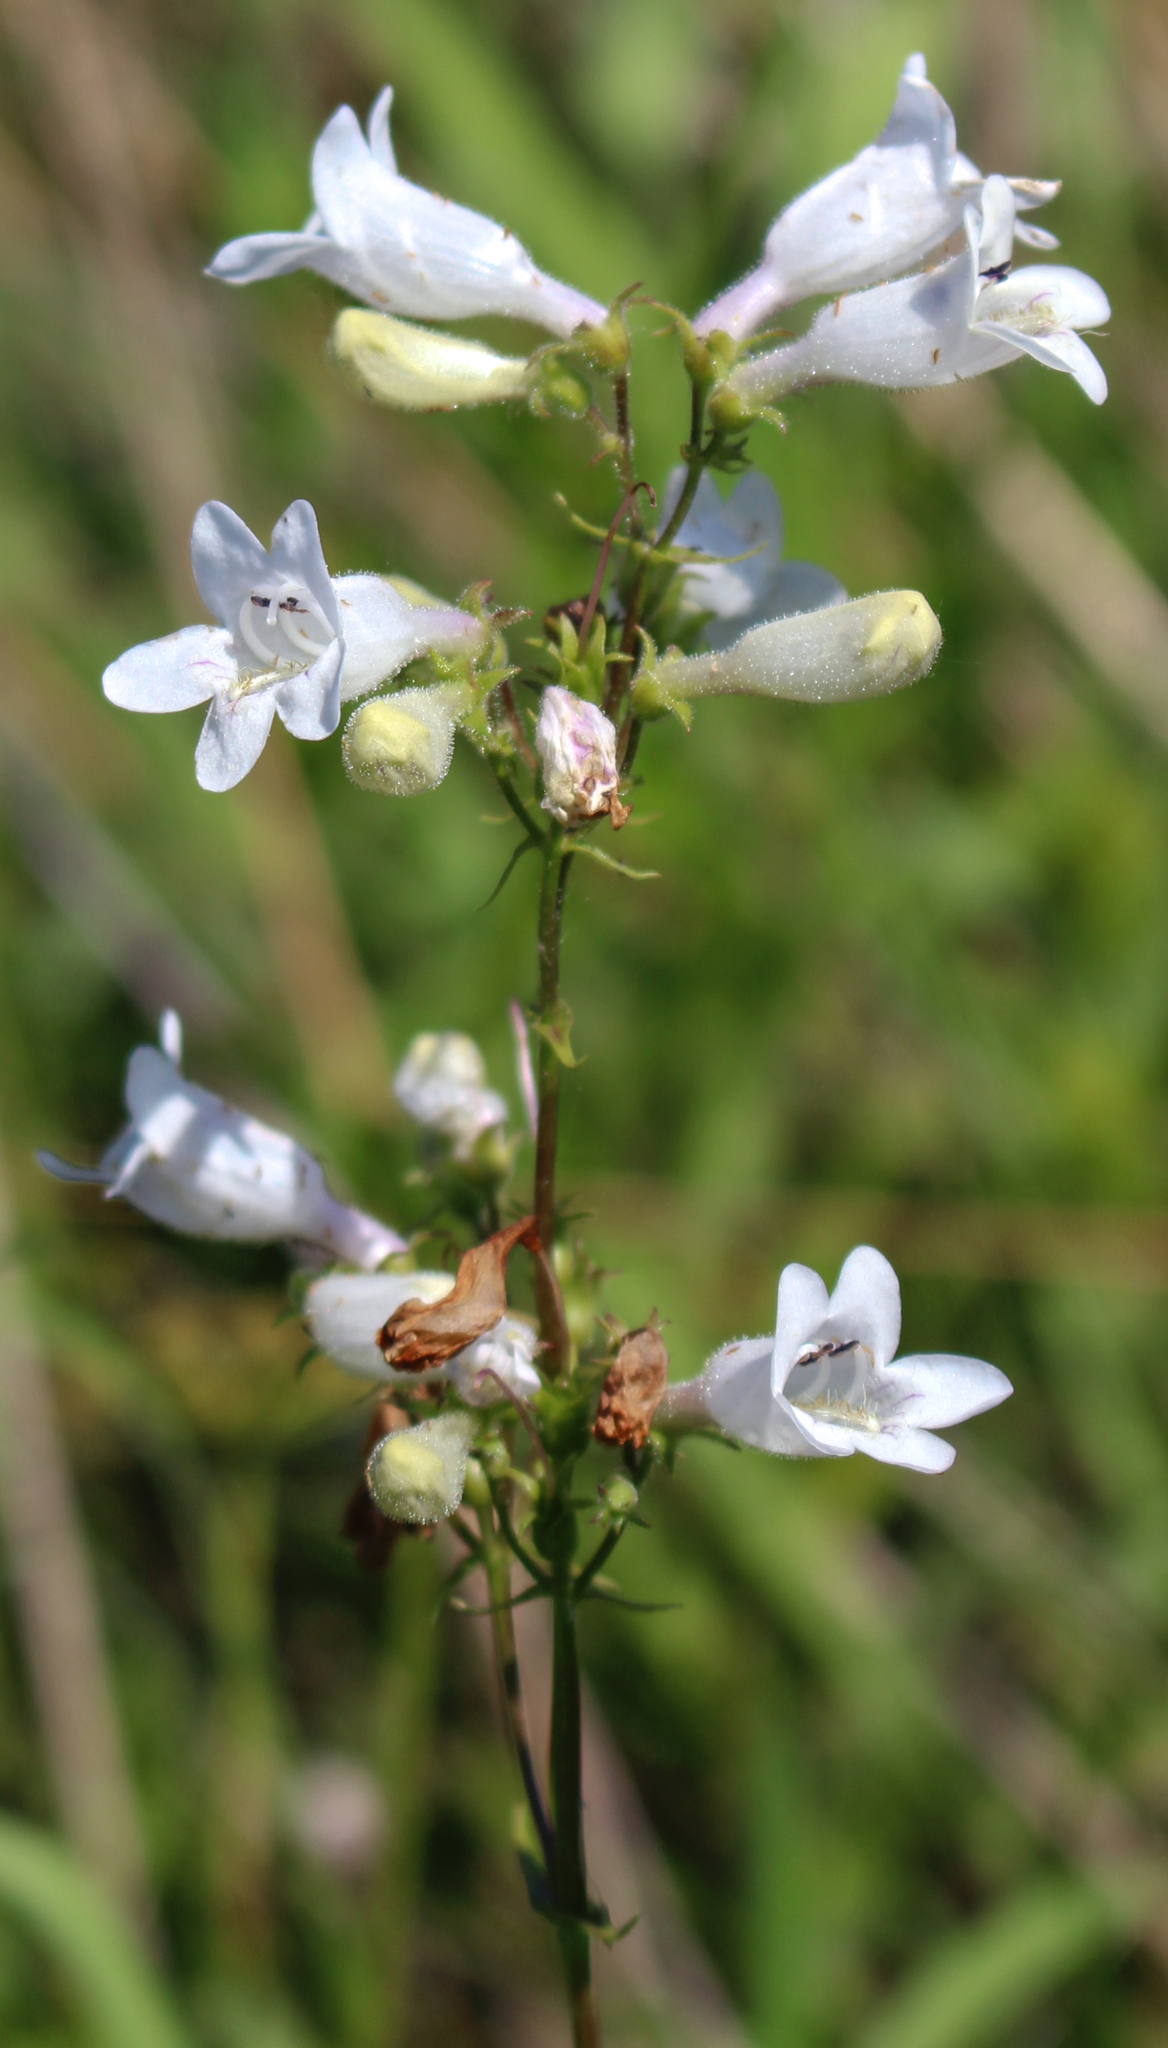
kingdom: Plantae
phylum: Tracheophyta
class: Magnoliopsida
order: Lamiales
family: Plantaginaceae
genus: Penstemon
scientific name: Penstemon digitalis
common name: Foxglove beardtongue
